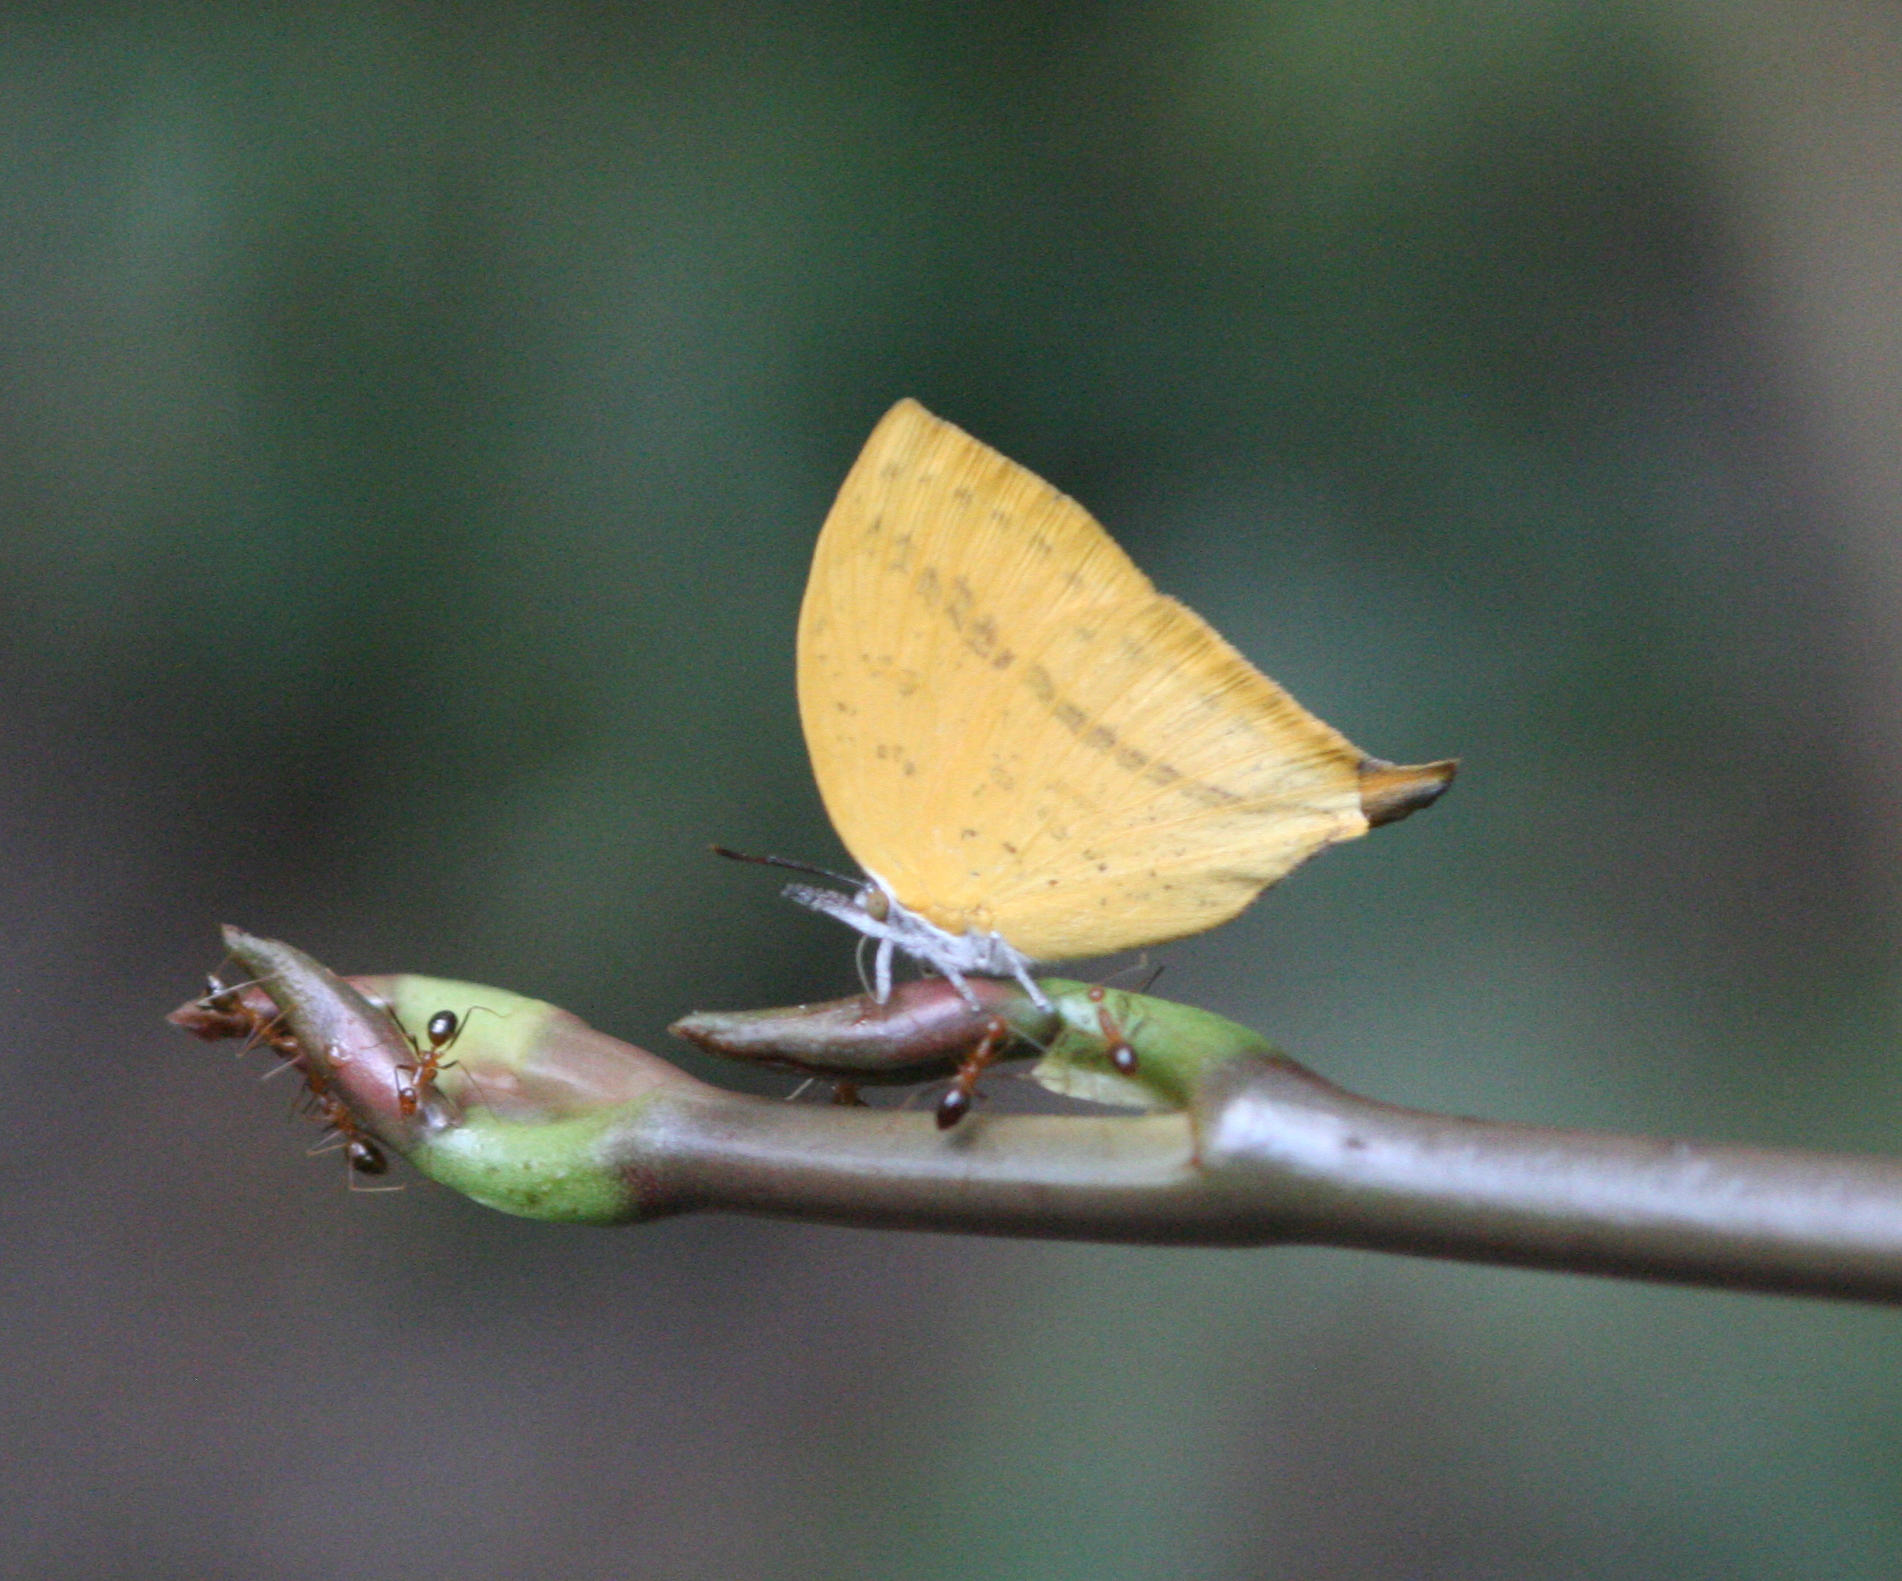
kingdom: Animalia
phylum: Arthropoda
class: Insecta
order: Lepidoptera
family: Lycaenidae
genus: Loxura
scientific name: Loxura atymnus
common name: Common yamfly
